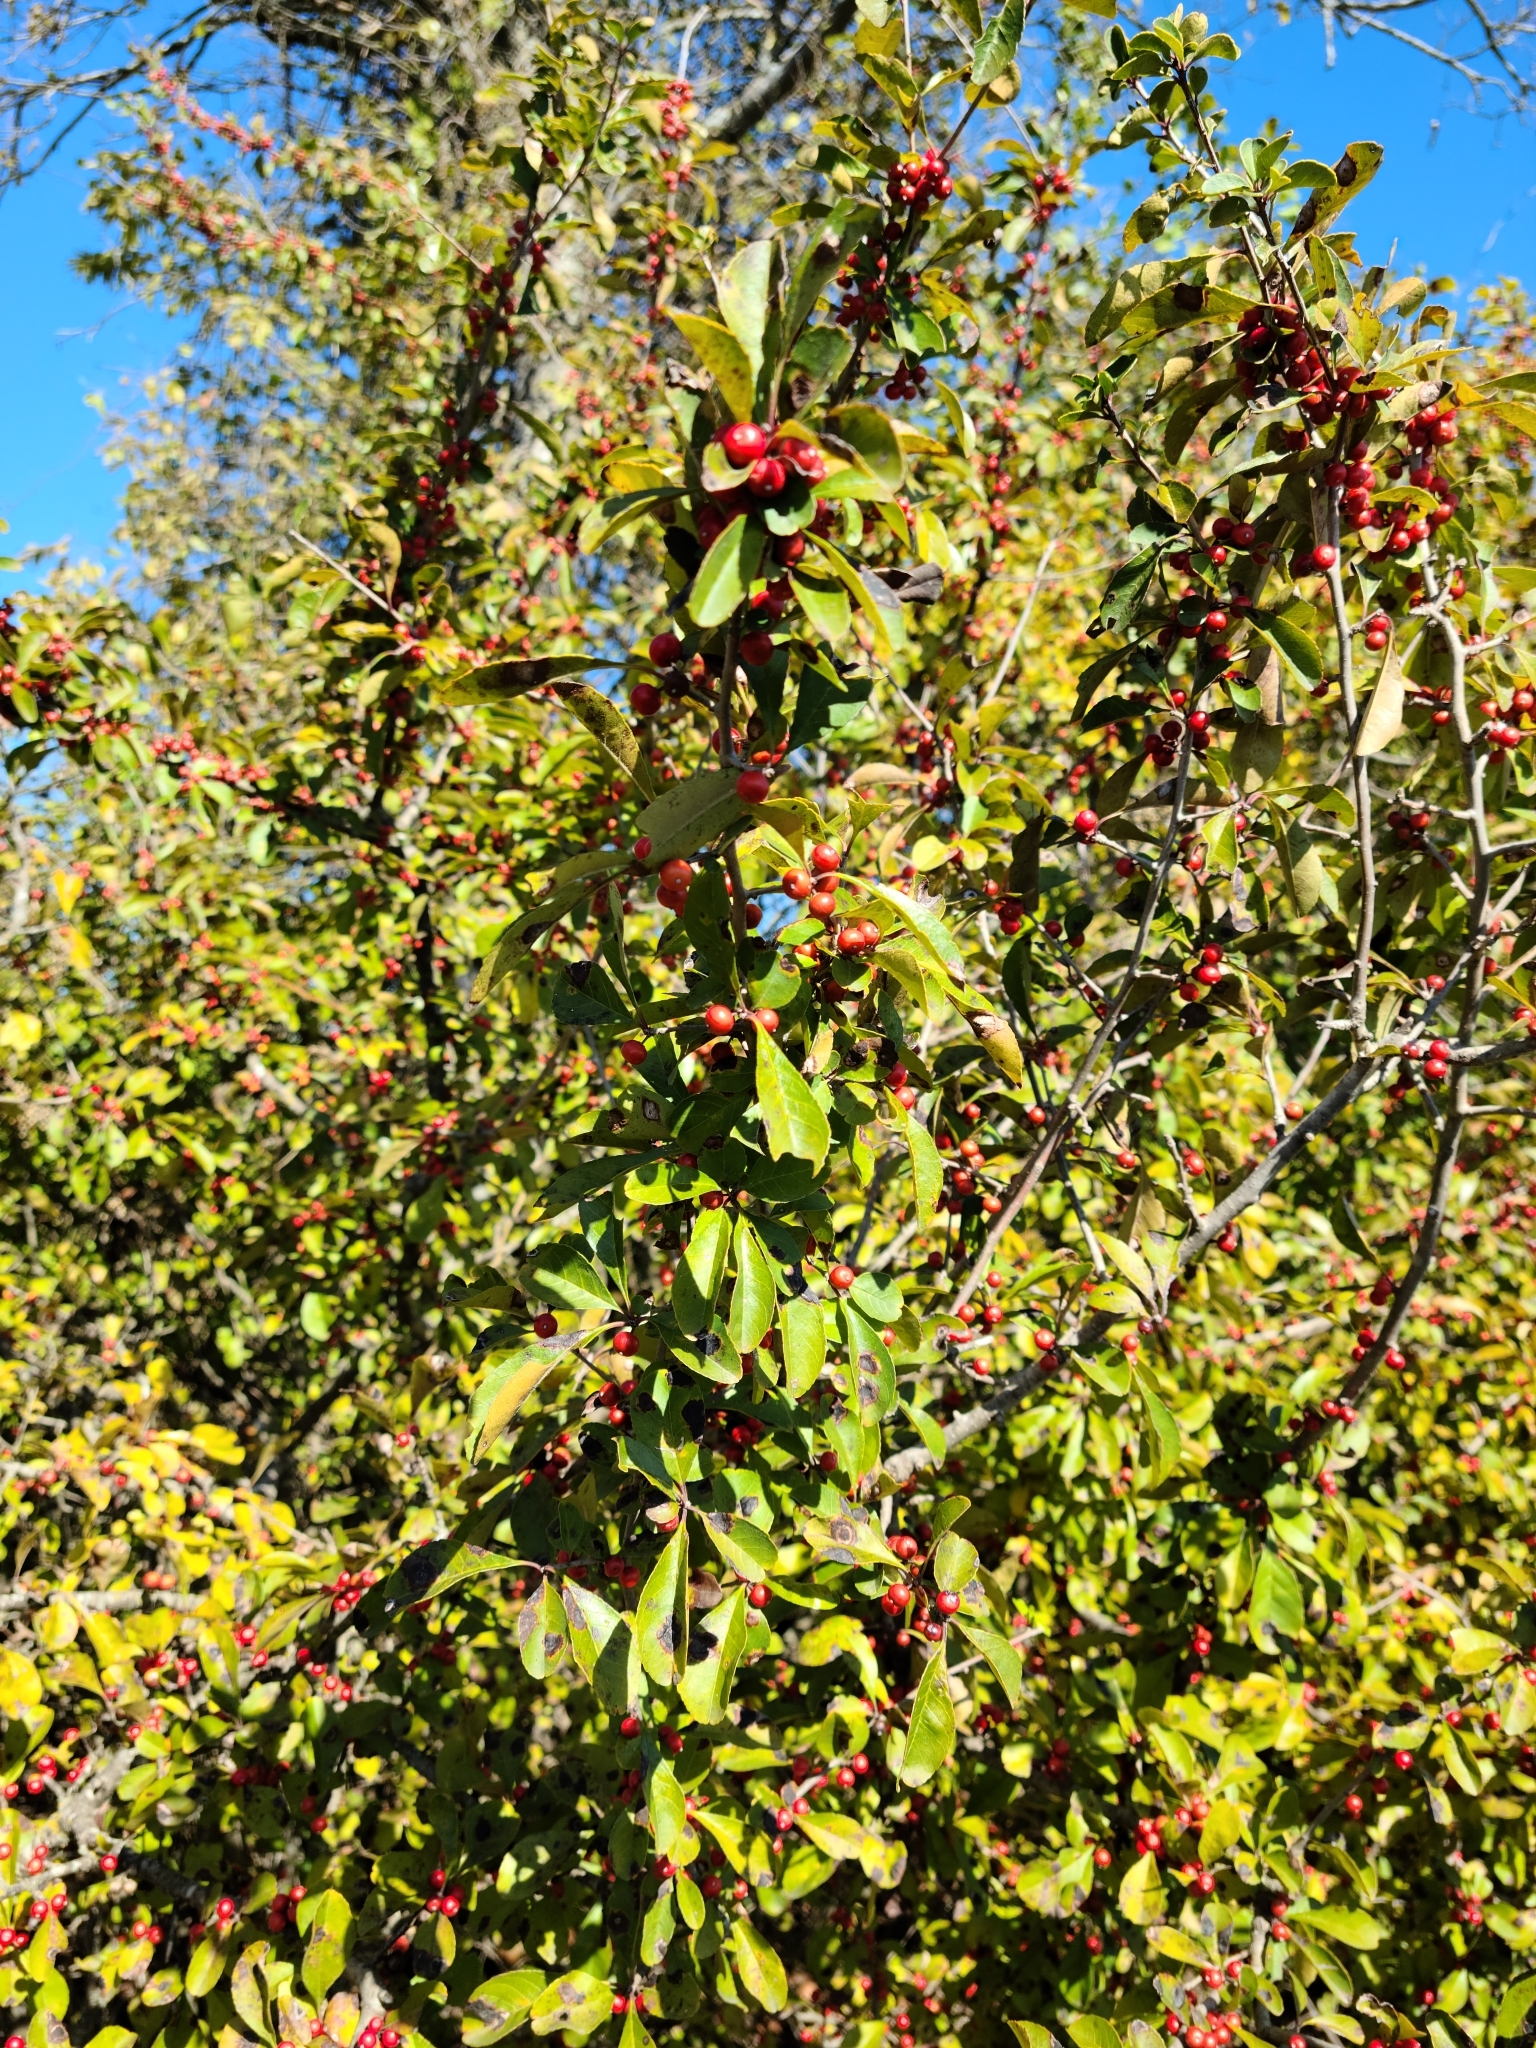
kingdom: Plantae
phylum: Tracheophyta
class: Magnoliopsida
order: Aquifoliales
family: Aquifoliaceae
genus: Ilex
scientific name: Ilex decidua
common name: Possum-haw
